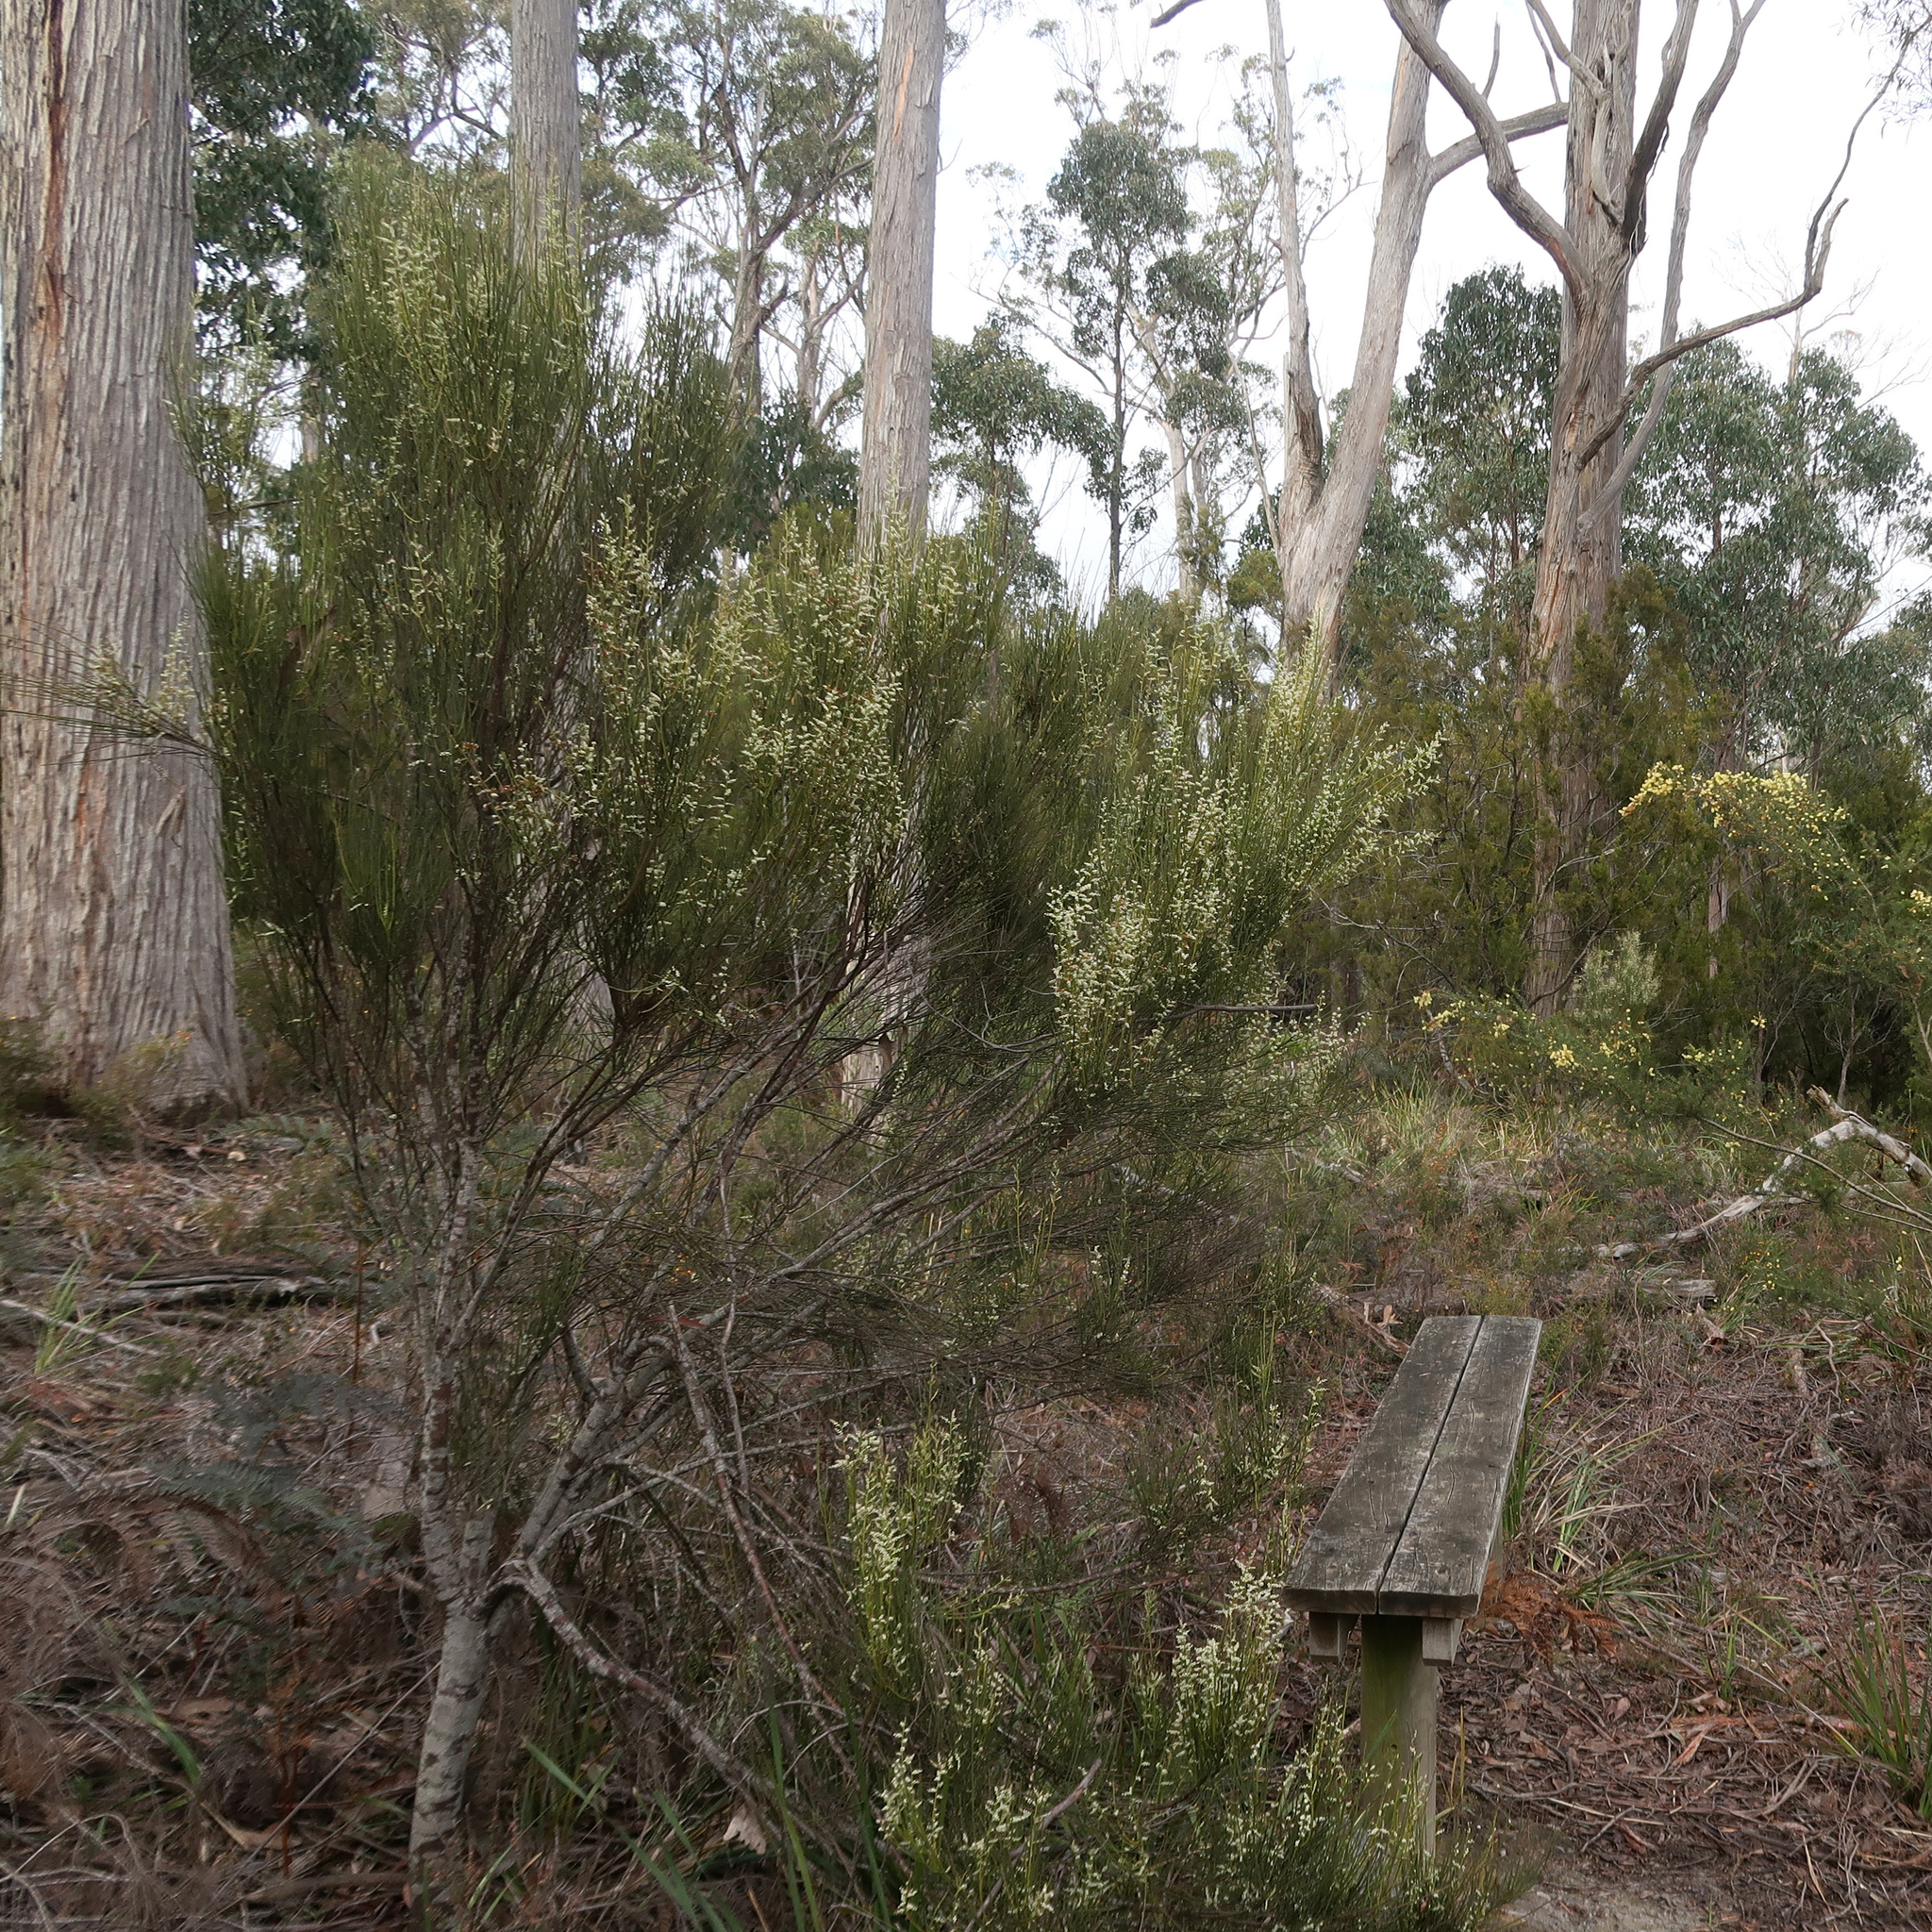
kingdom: Plantae
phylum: Tracheophyta
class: Magnoliopsida
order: Santalales
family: Amphorogynaceae
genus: Leptomeria
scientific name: Leptomeria drupacea
